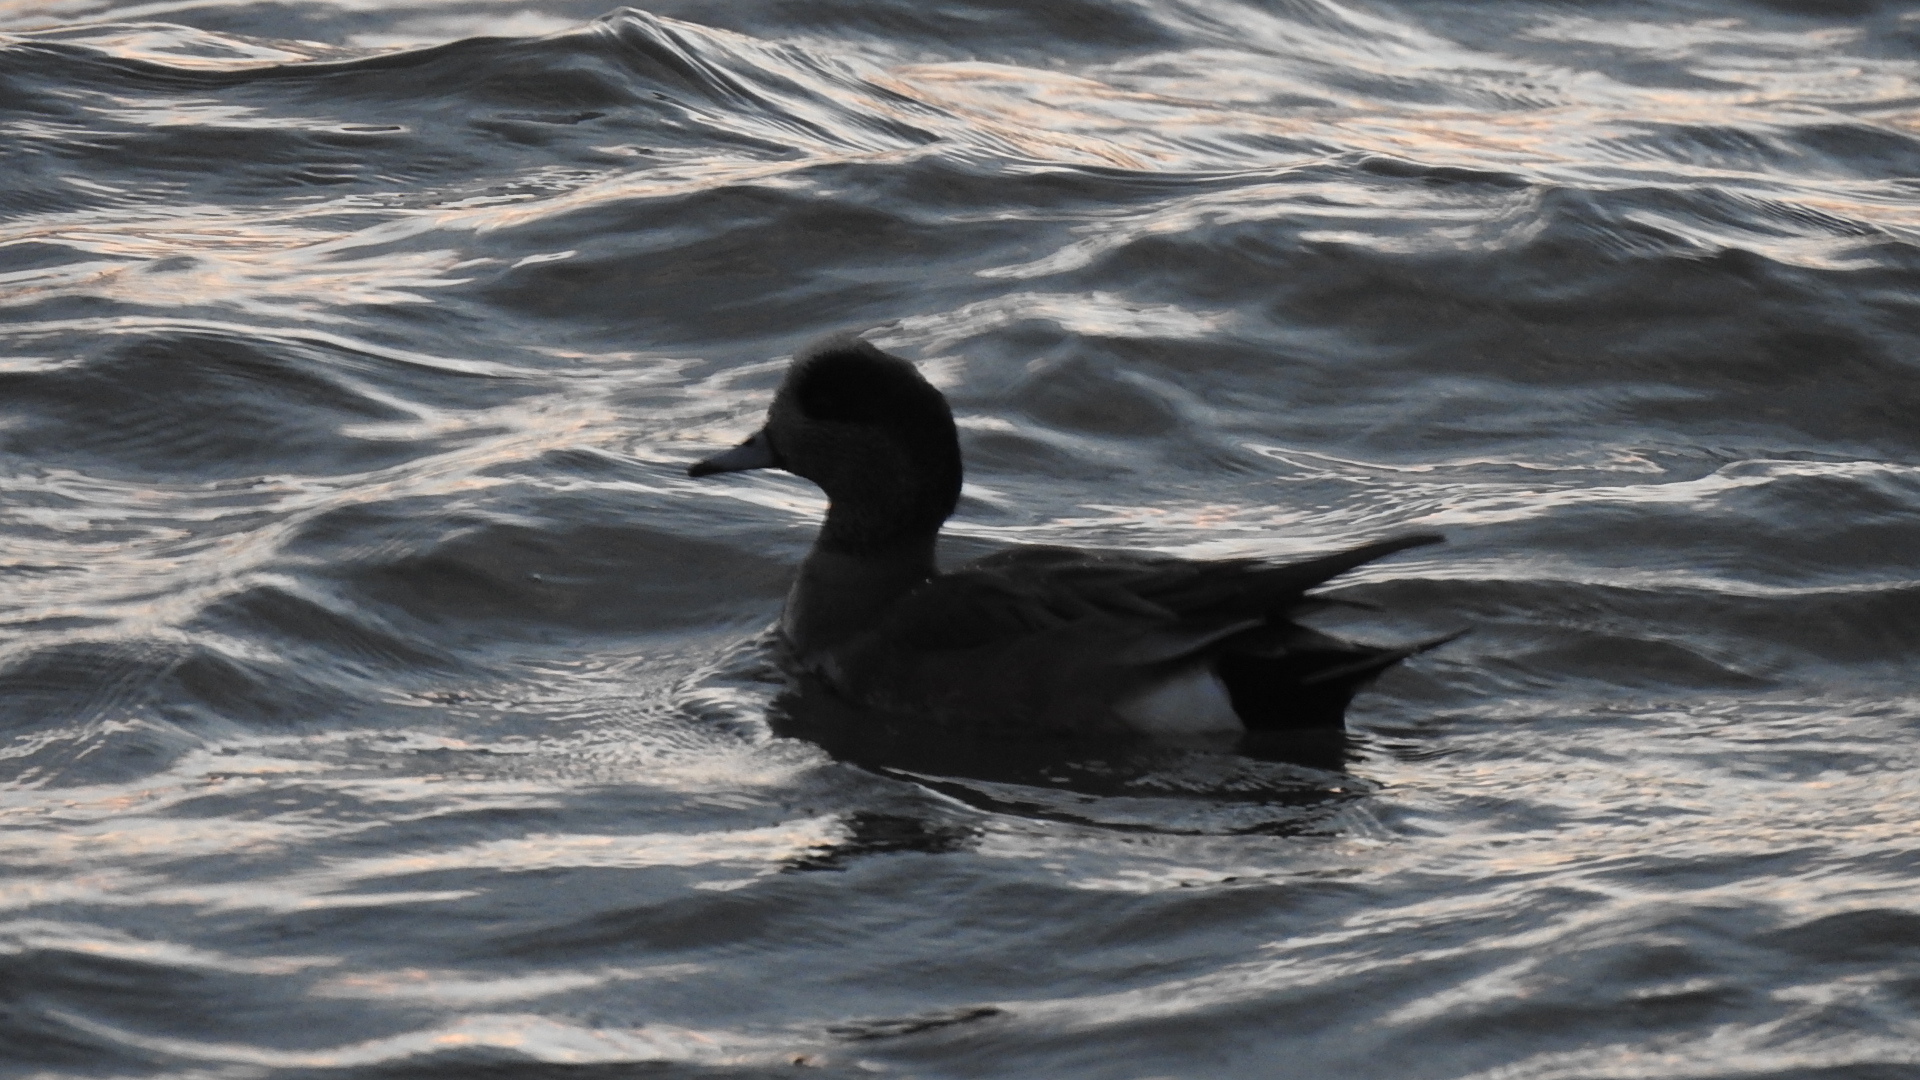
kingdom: Animalia
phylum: Chordata
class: Aves
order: Anseriformes
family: Anatidae
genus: Mareca
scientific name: Mareca americana
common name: American wigeon
